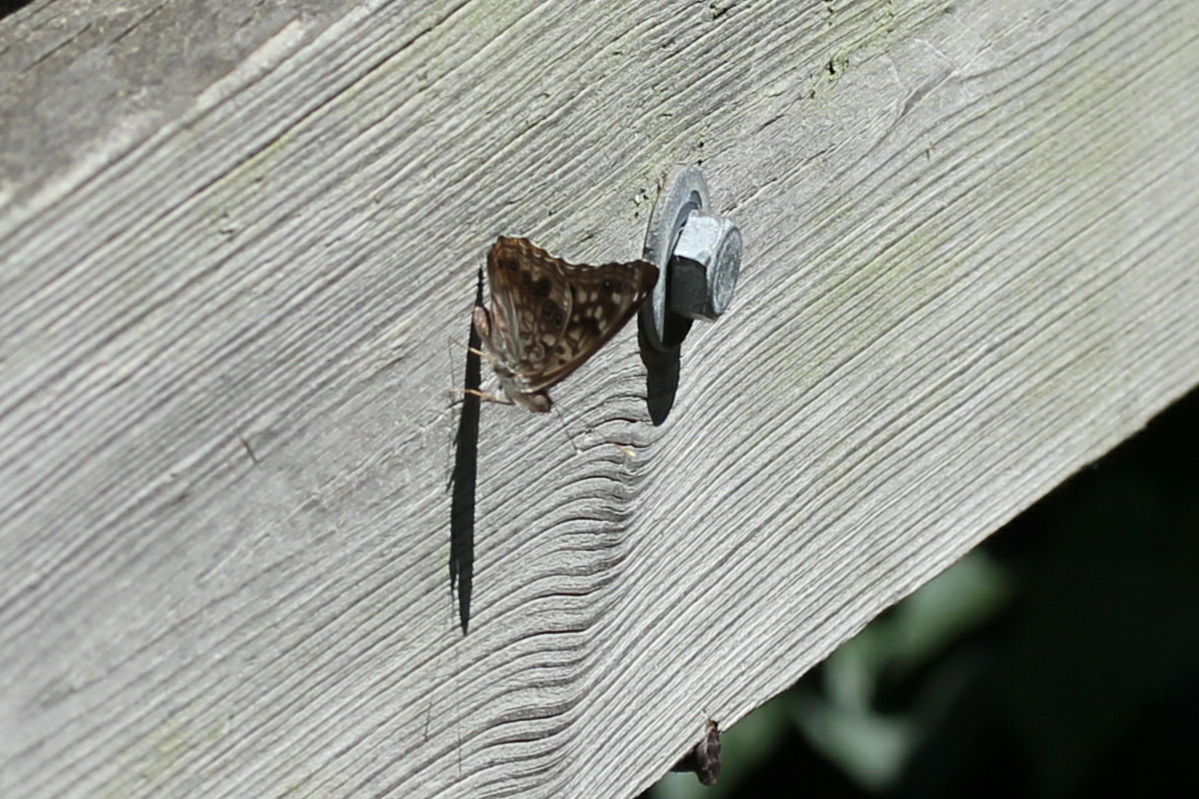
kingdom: Animalia
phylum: Arthropoda
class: Insecta
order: Lepidoptera
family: Nymphalidae
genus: Asterocampa
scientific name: Asterocampa celtis
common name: Hackberry emperor
